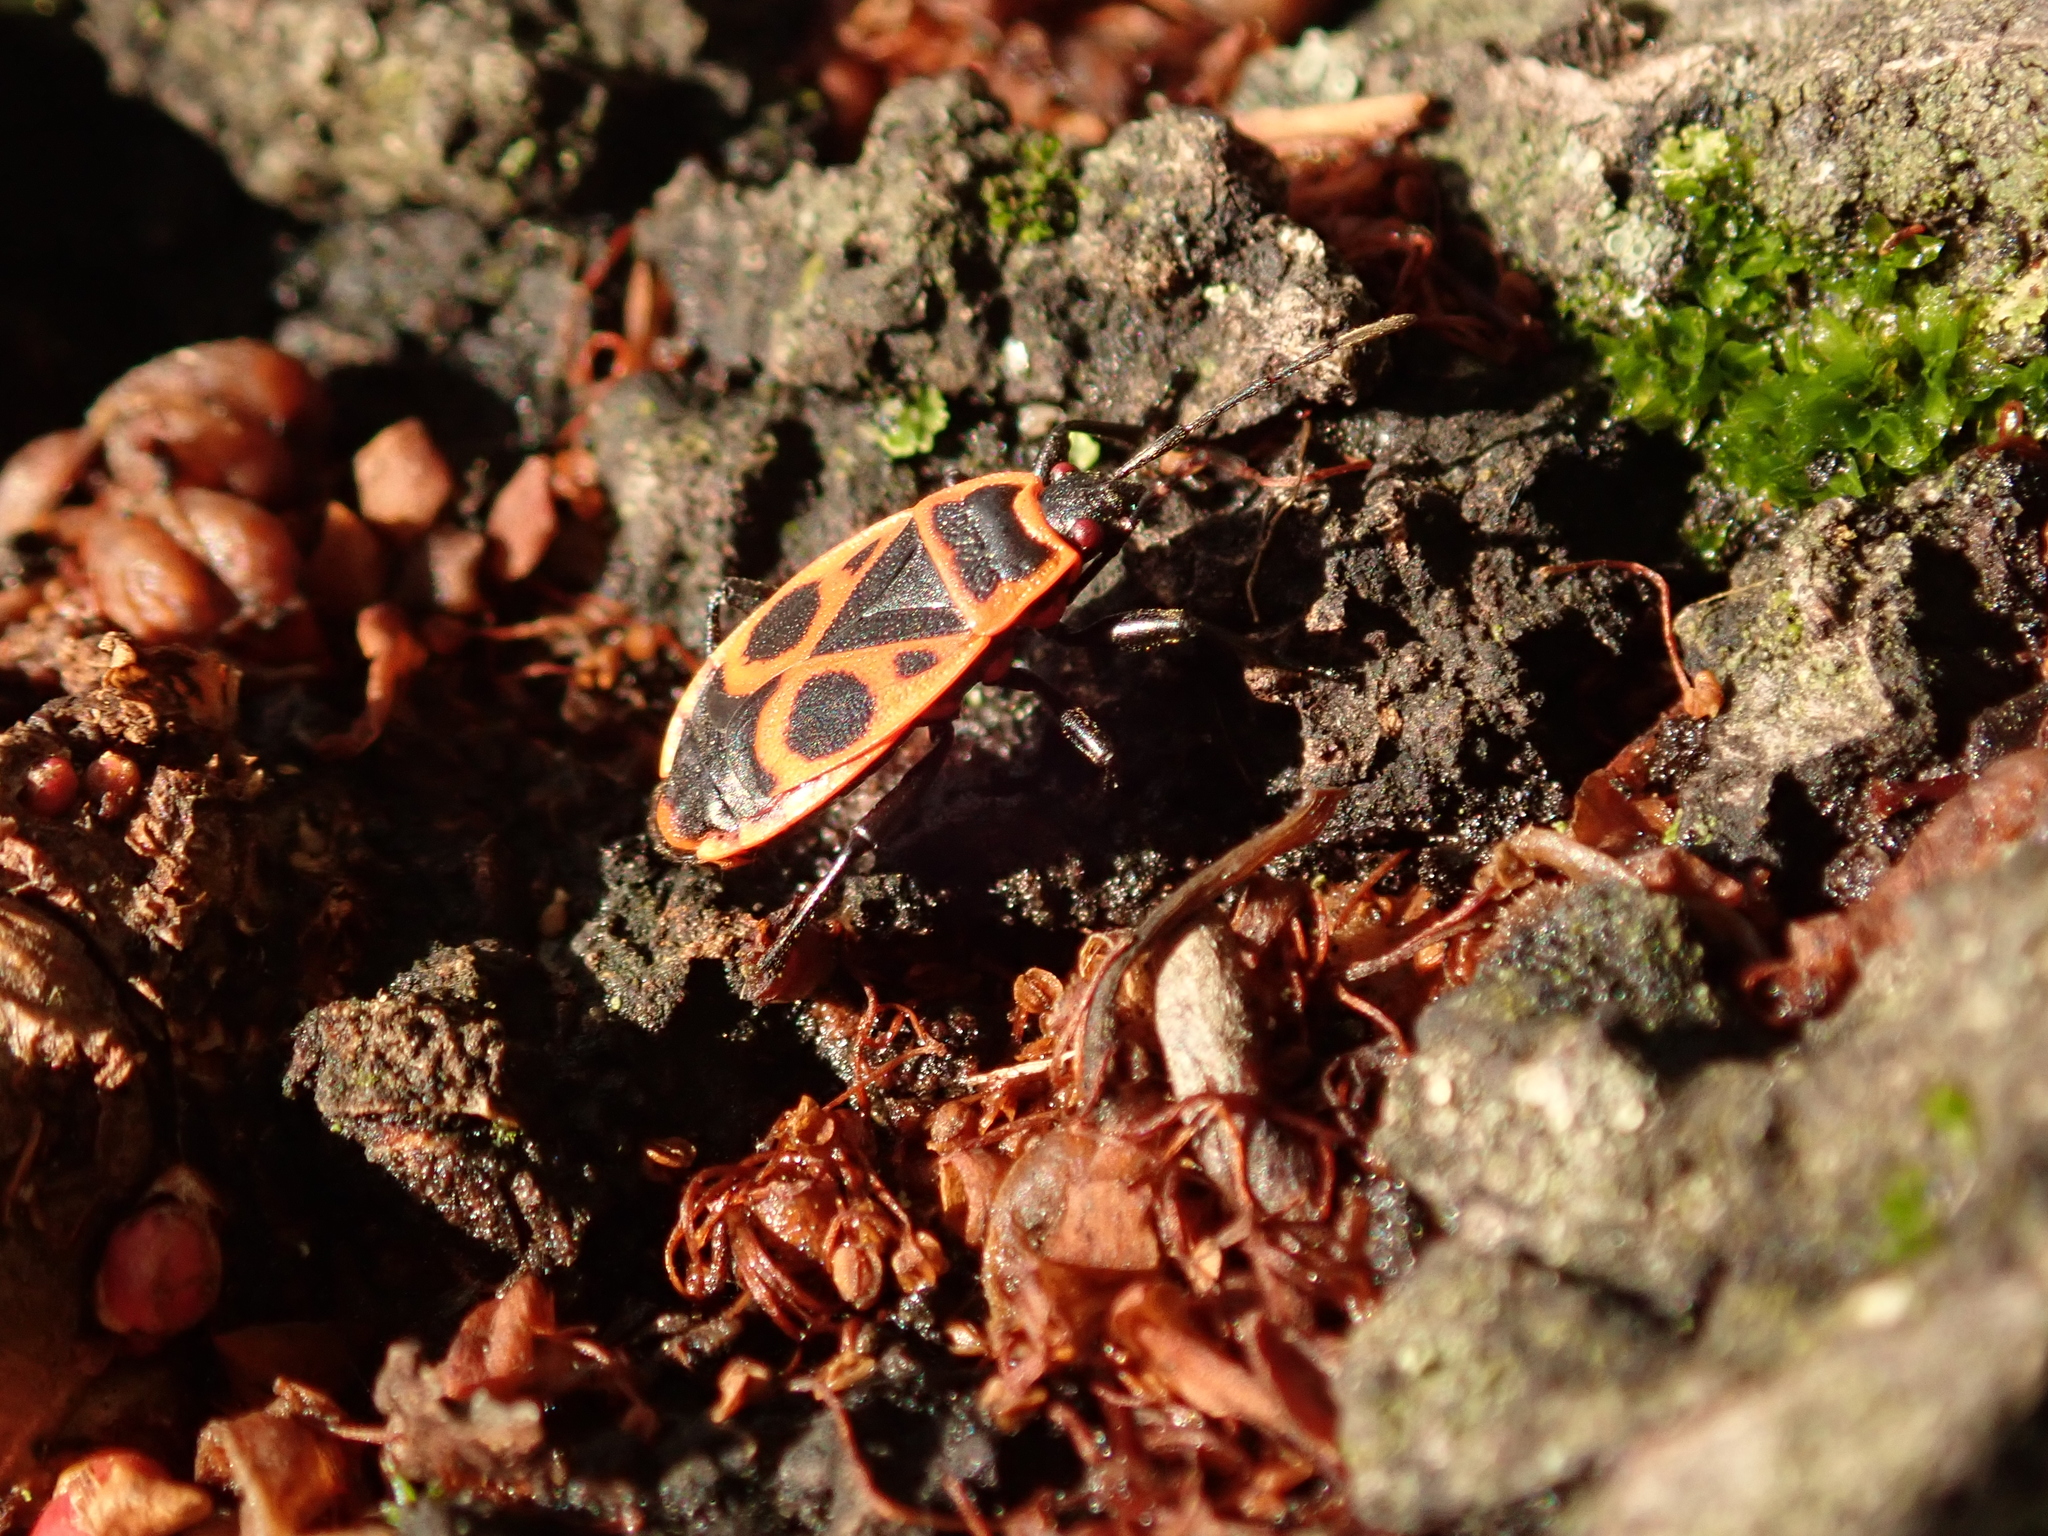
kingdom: Animalia
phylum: Arthropoda
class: Insecta
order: Hemiptera
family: Pyrrhocoridae
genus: Pyrrhocoris
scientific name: Pyrrhocoris apterus
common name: Firebug
